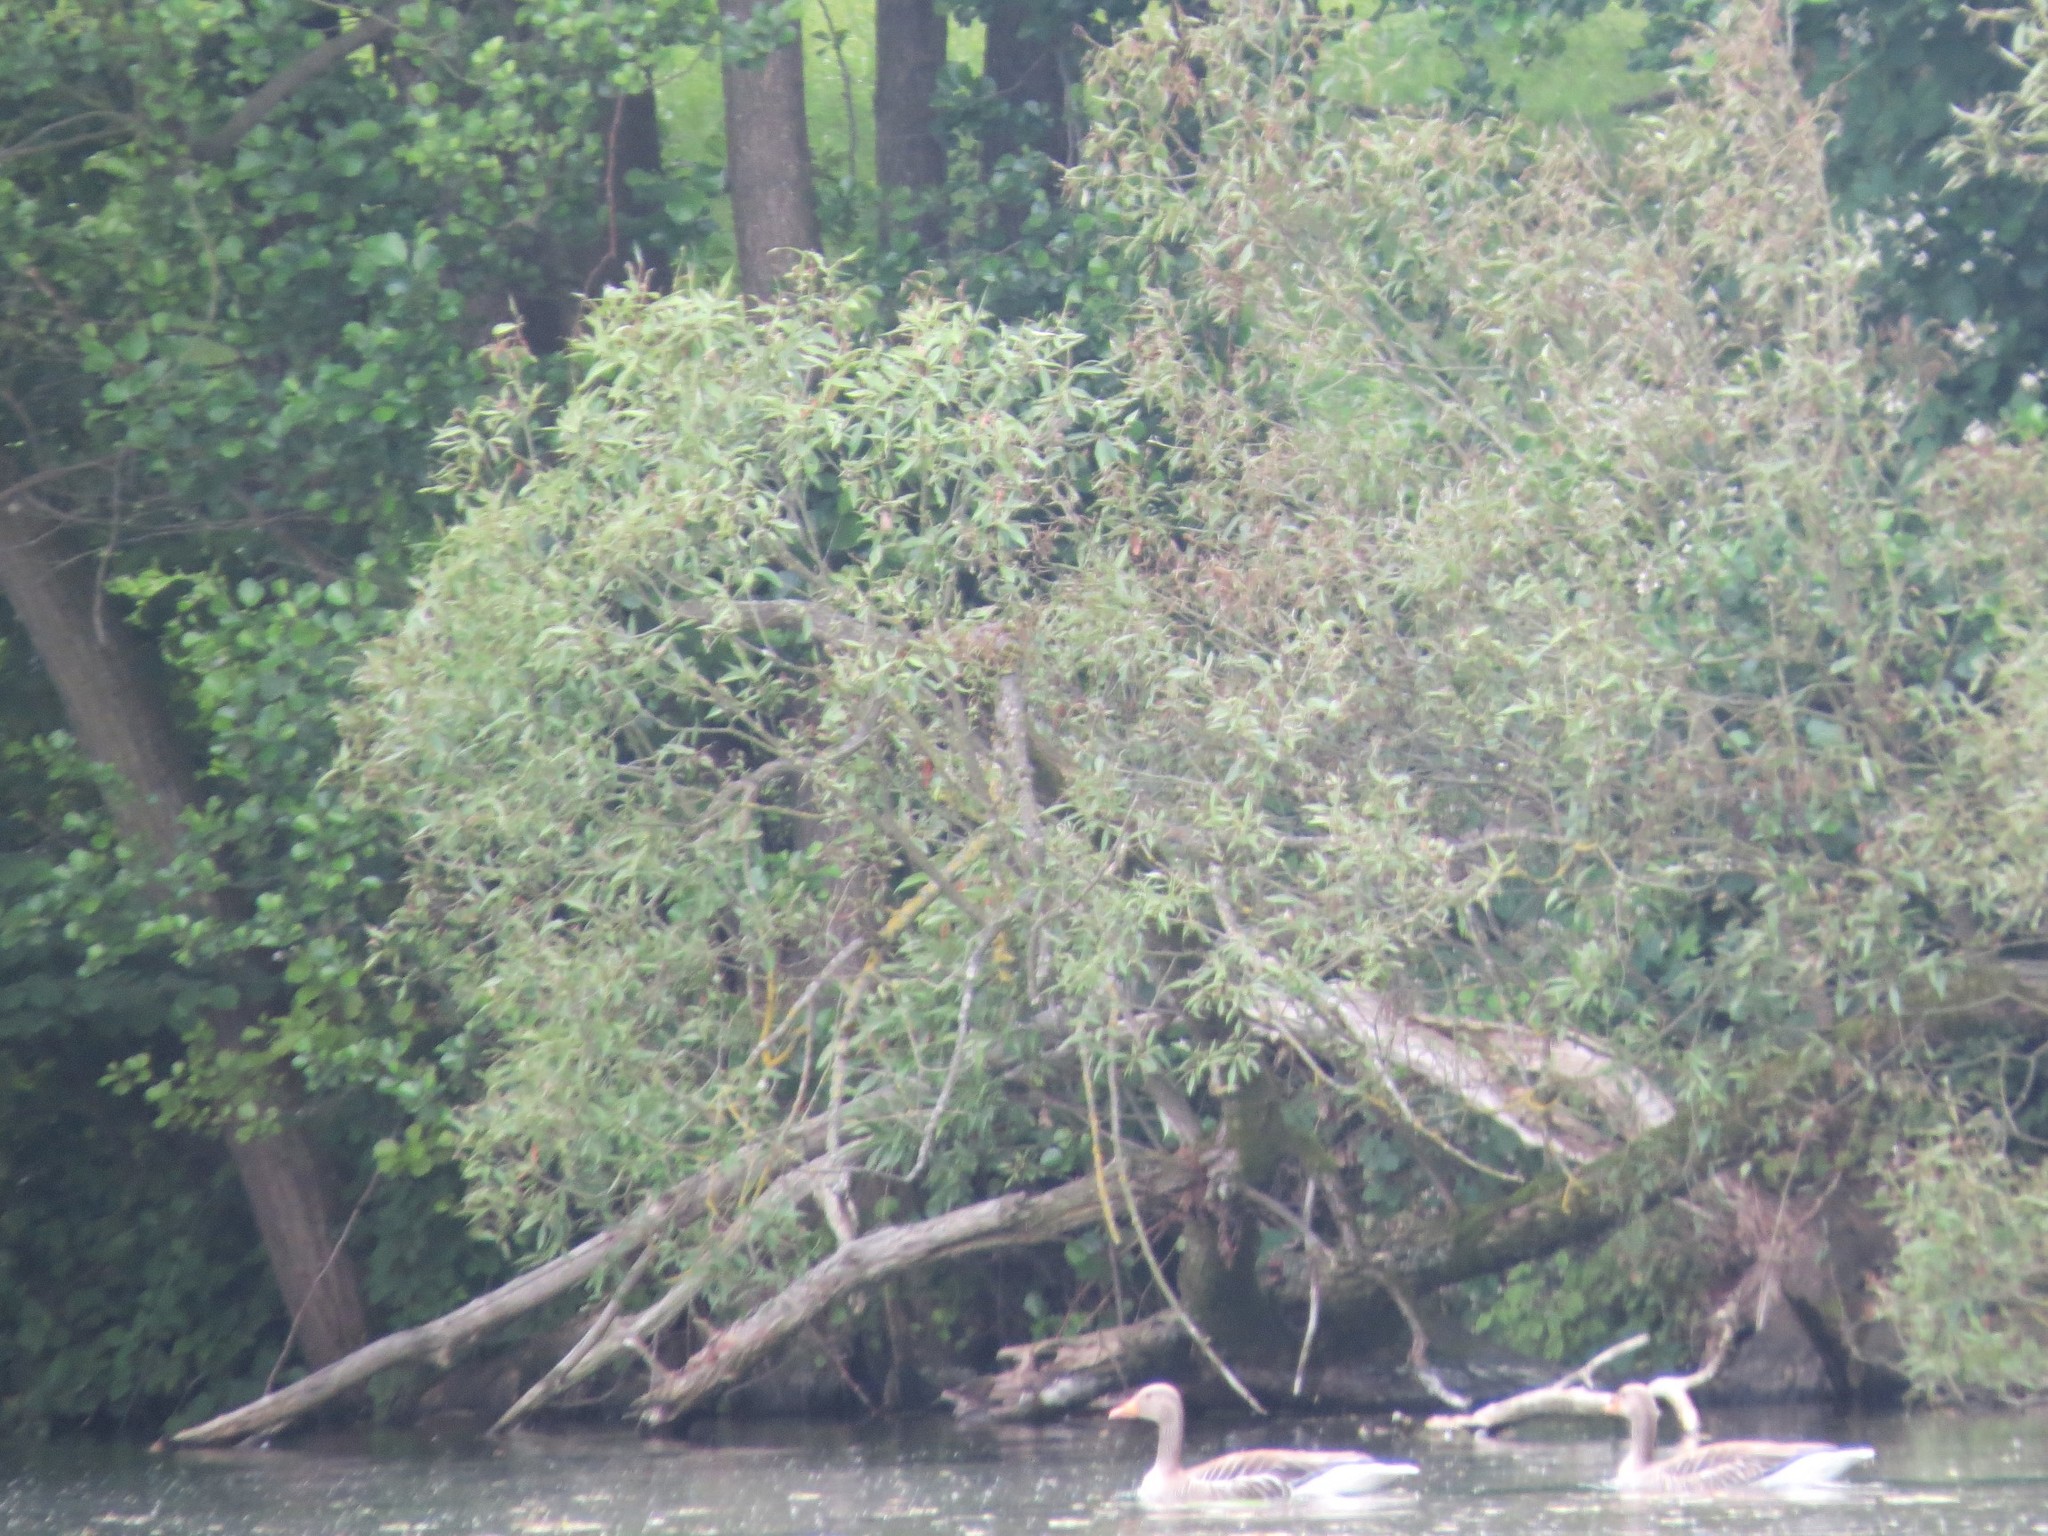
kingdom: Animalia
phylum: Chordata
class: Aves
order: Anseriformes
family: Anatidae
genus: Anser
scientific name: Anser anser
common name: Greylag goose
